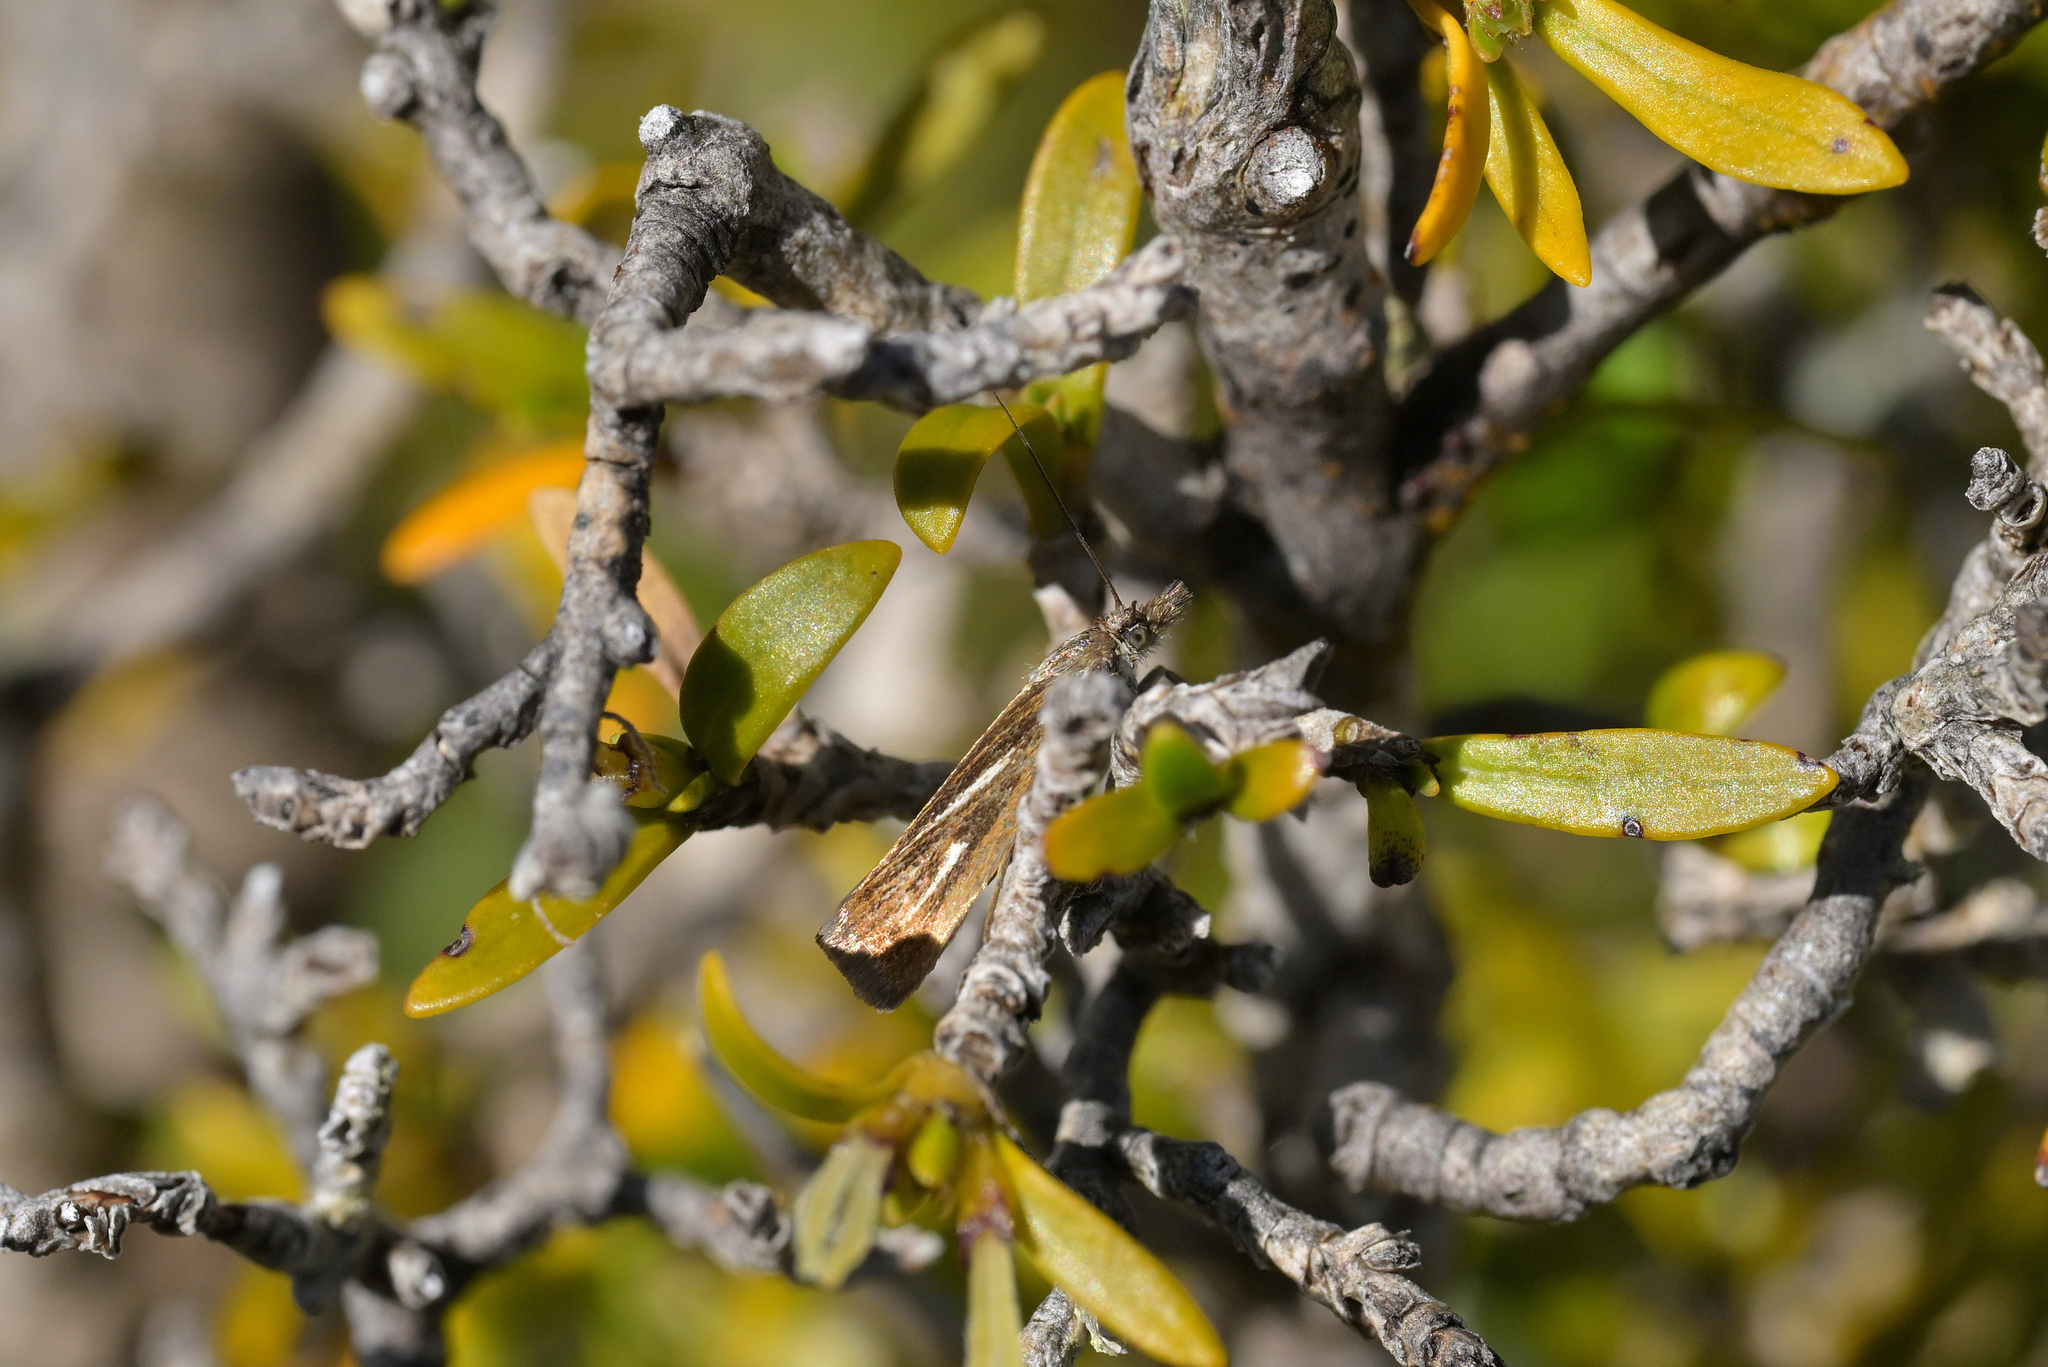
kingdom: Animalia
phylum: Arthropoda
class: Insecta
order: Lepidoptera
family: Crambidae
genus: Orocrambus
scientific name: Orocrambus heliotes
